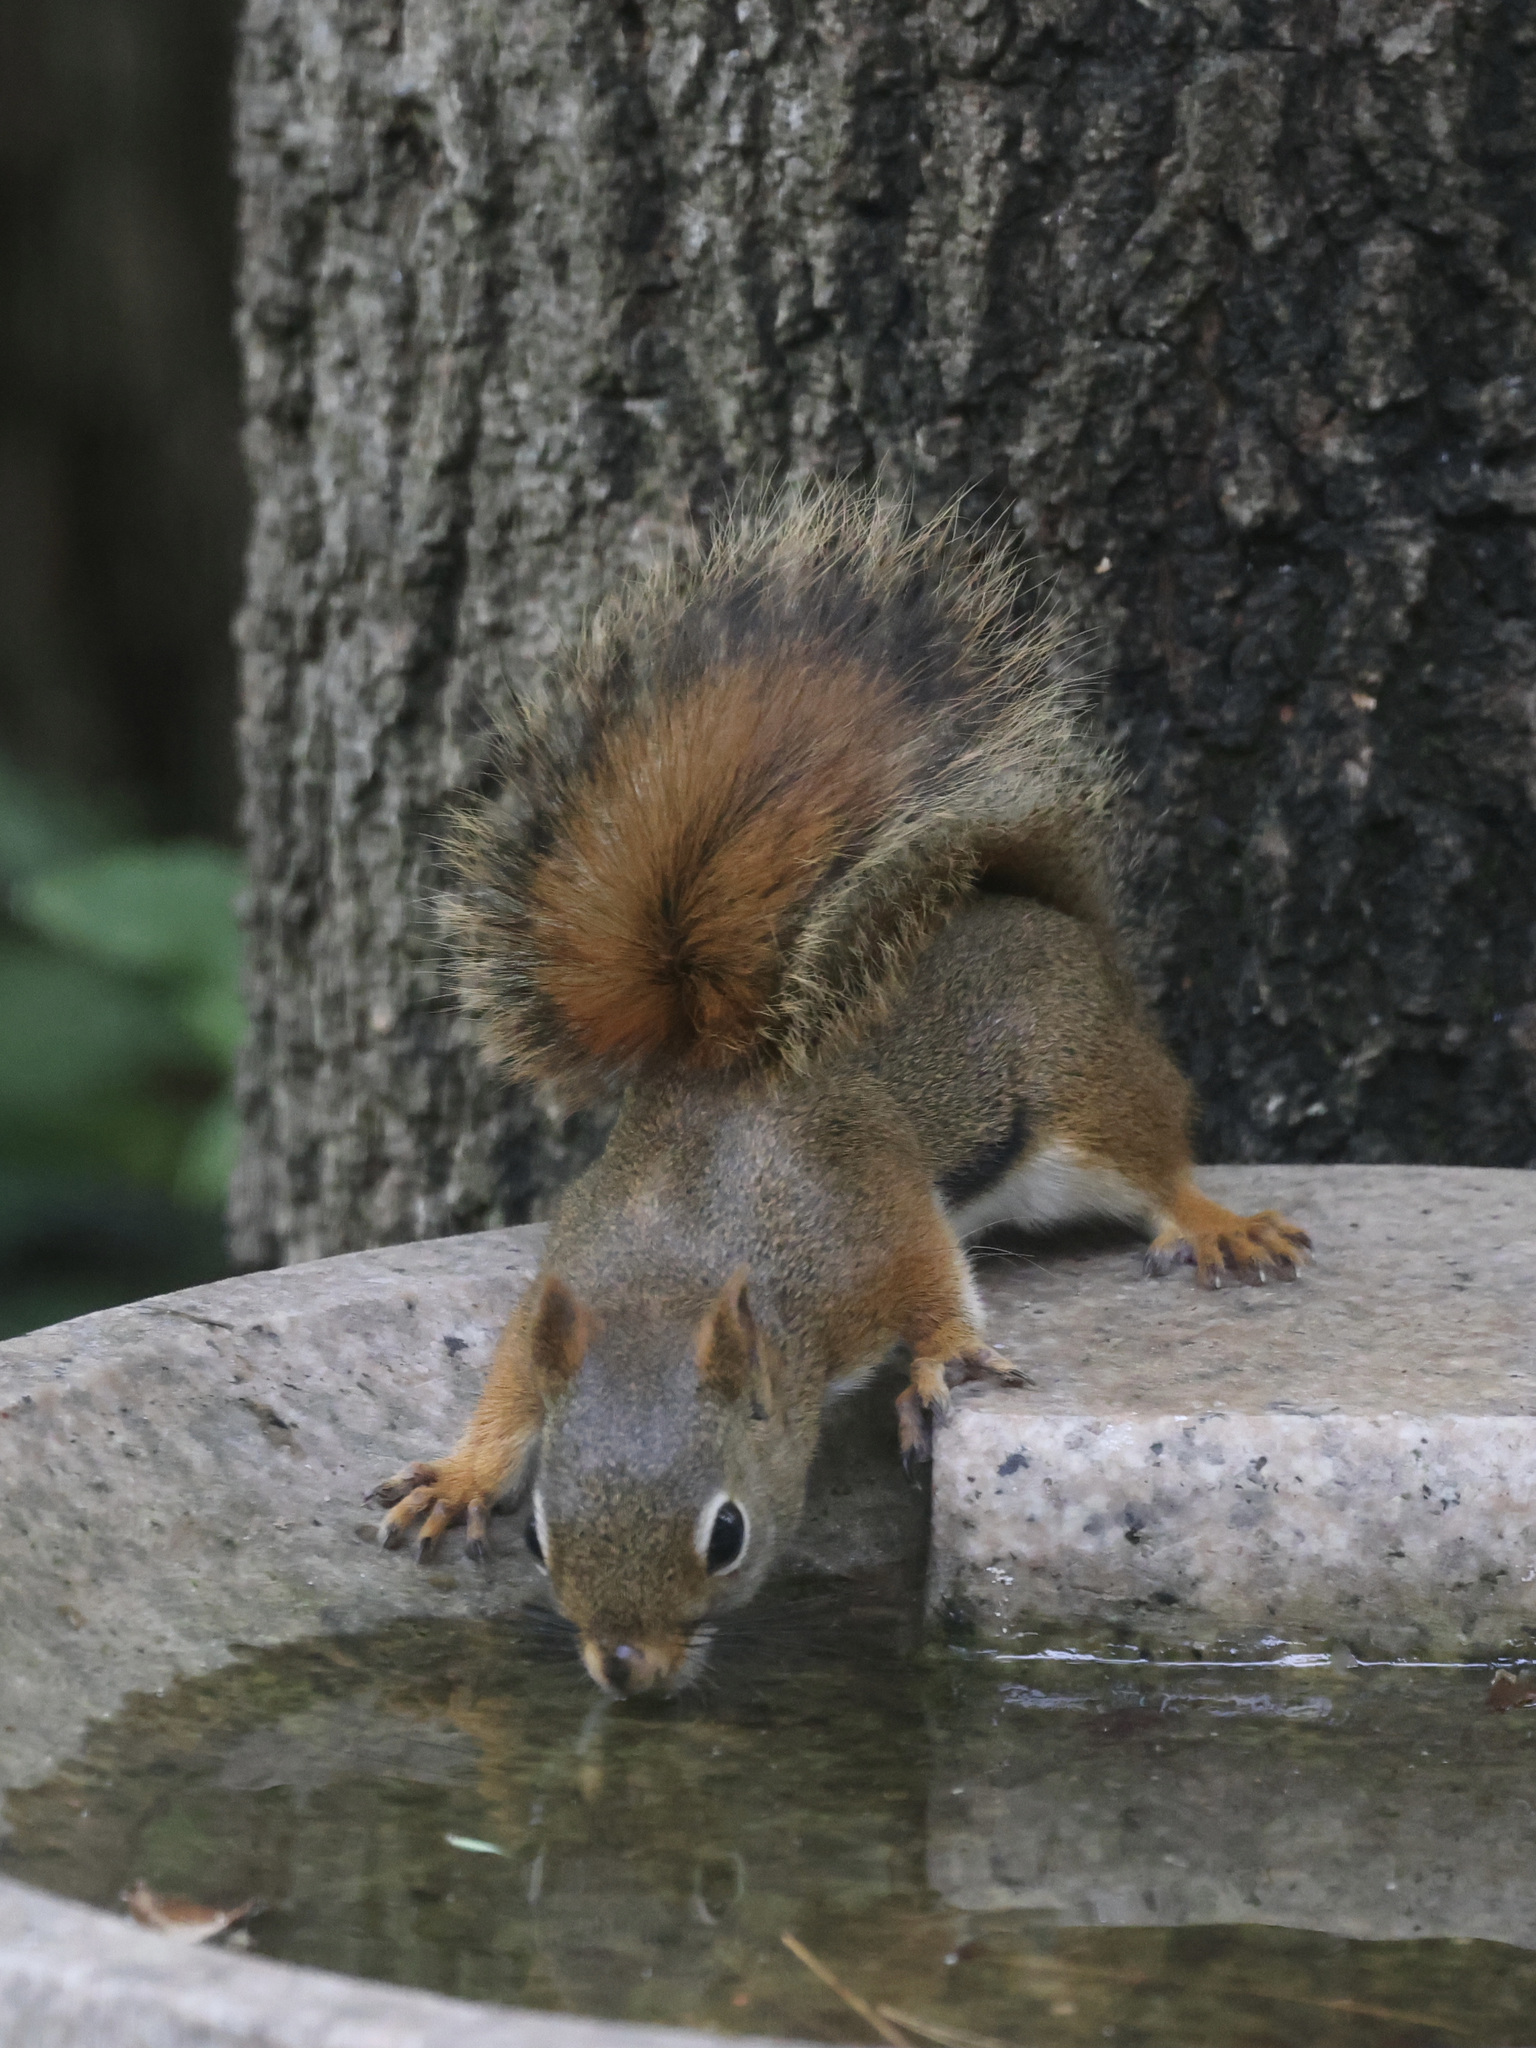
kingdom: Animalia
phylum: Chordata
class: Mammalia
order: Rodentia
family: Sciuridae
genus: Tamiasciurus
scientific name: Tamiasciurus hudsonicus
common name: Red squirrel
